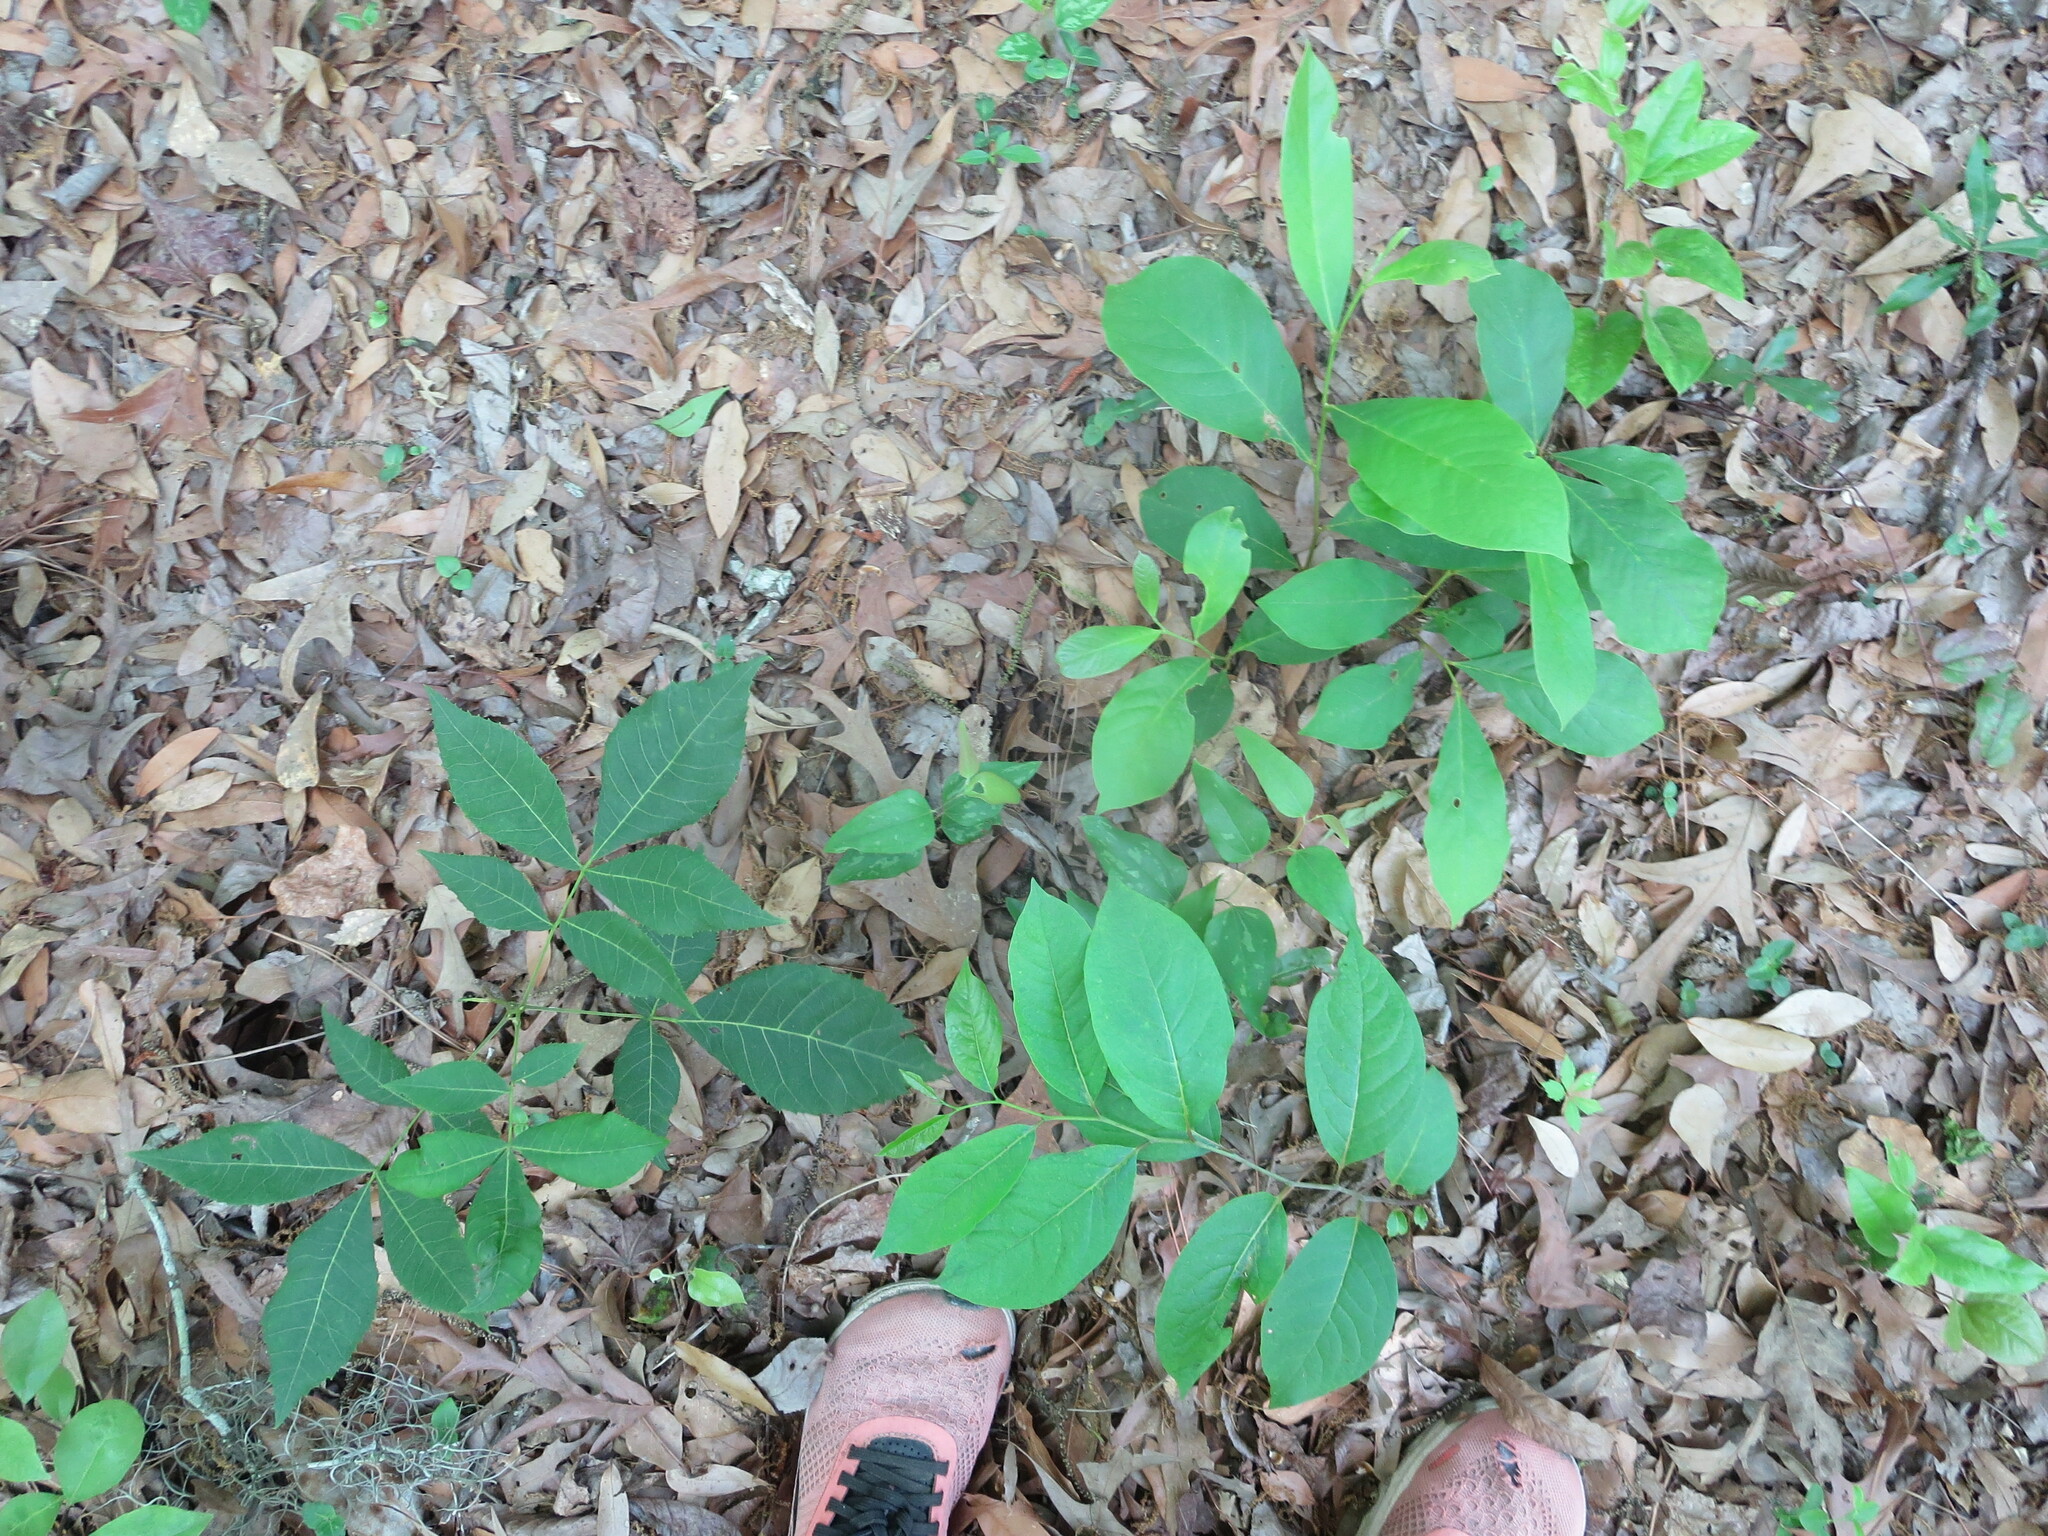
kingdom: Plantae
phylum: Tracheophyta
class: Magnoliopsida
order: Magnoliales
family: Annonaceae
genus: Asimina
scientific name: Asimina parviflora
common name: Dwarf pawpaw
